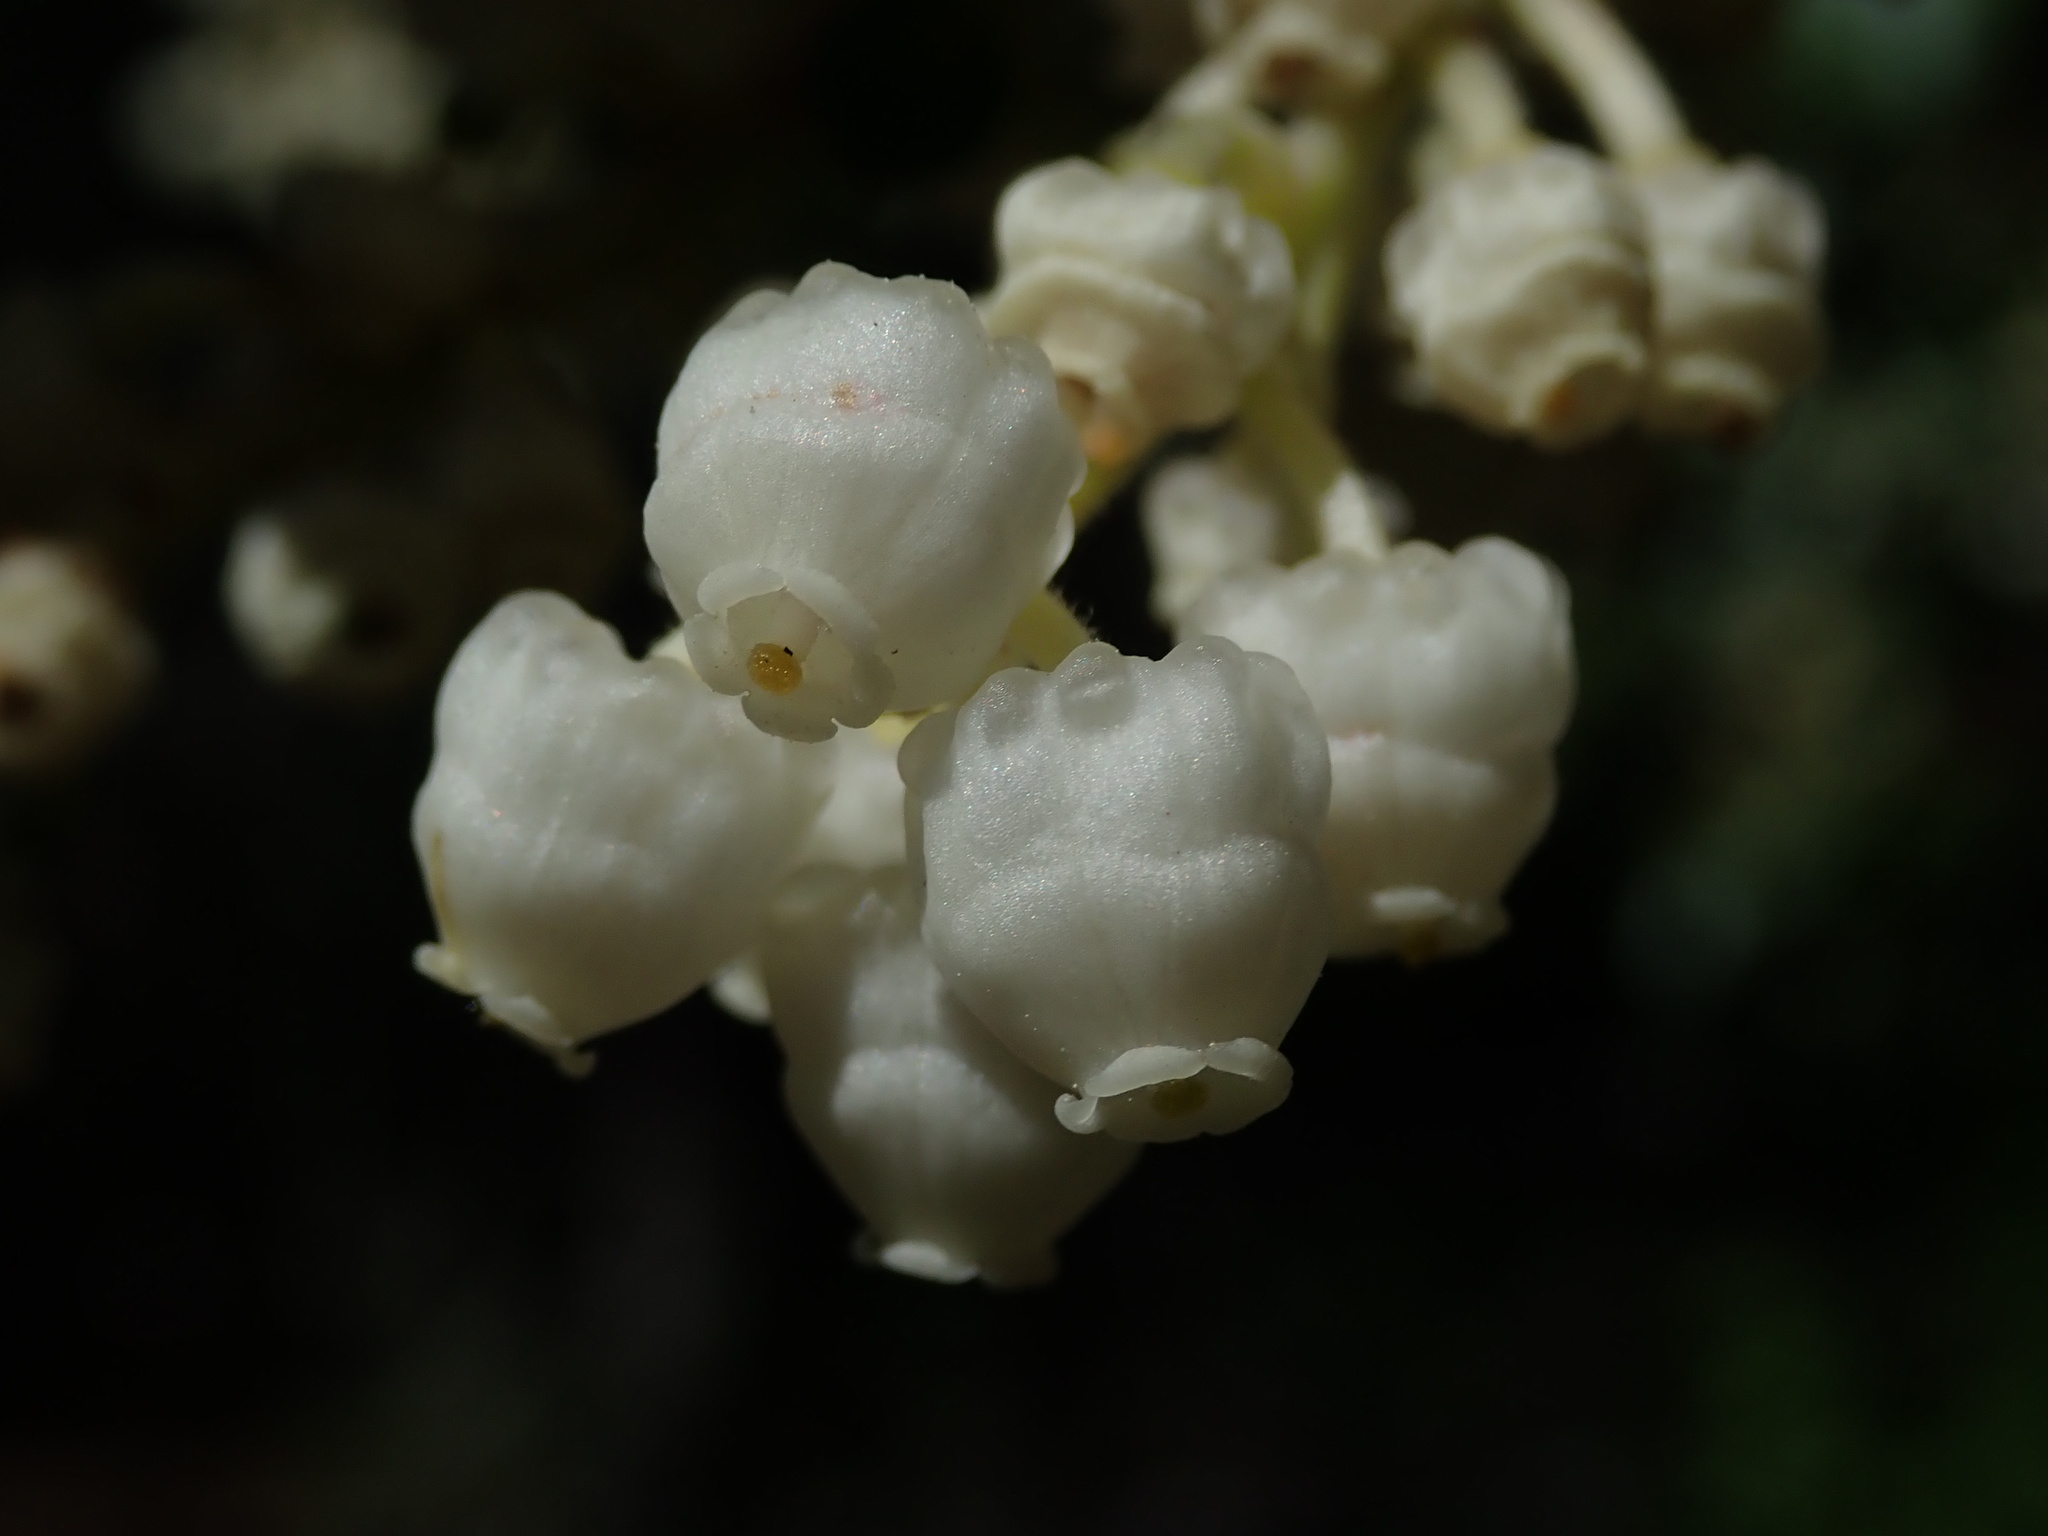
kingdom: Plantae
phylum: Tracheophyta
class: Magnoliopsida
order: Ericales
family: Ericaceae
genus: Arbutus
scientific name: Arbutus menziesii
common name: Pacific madrone
